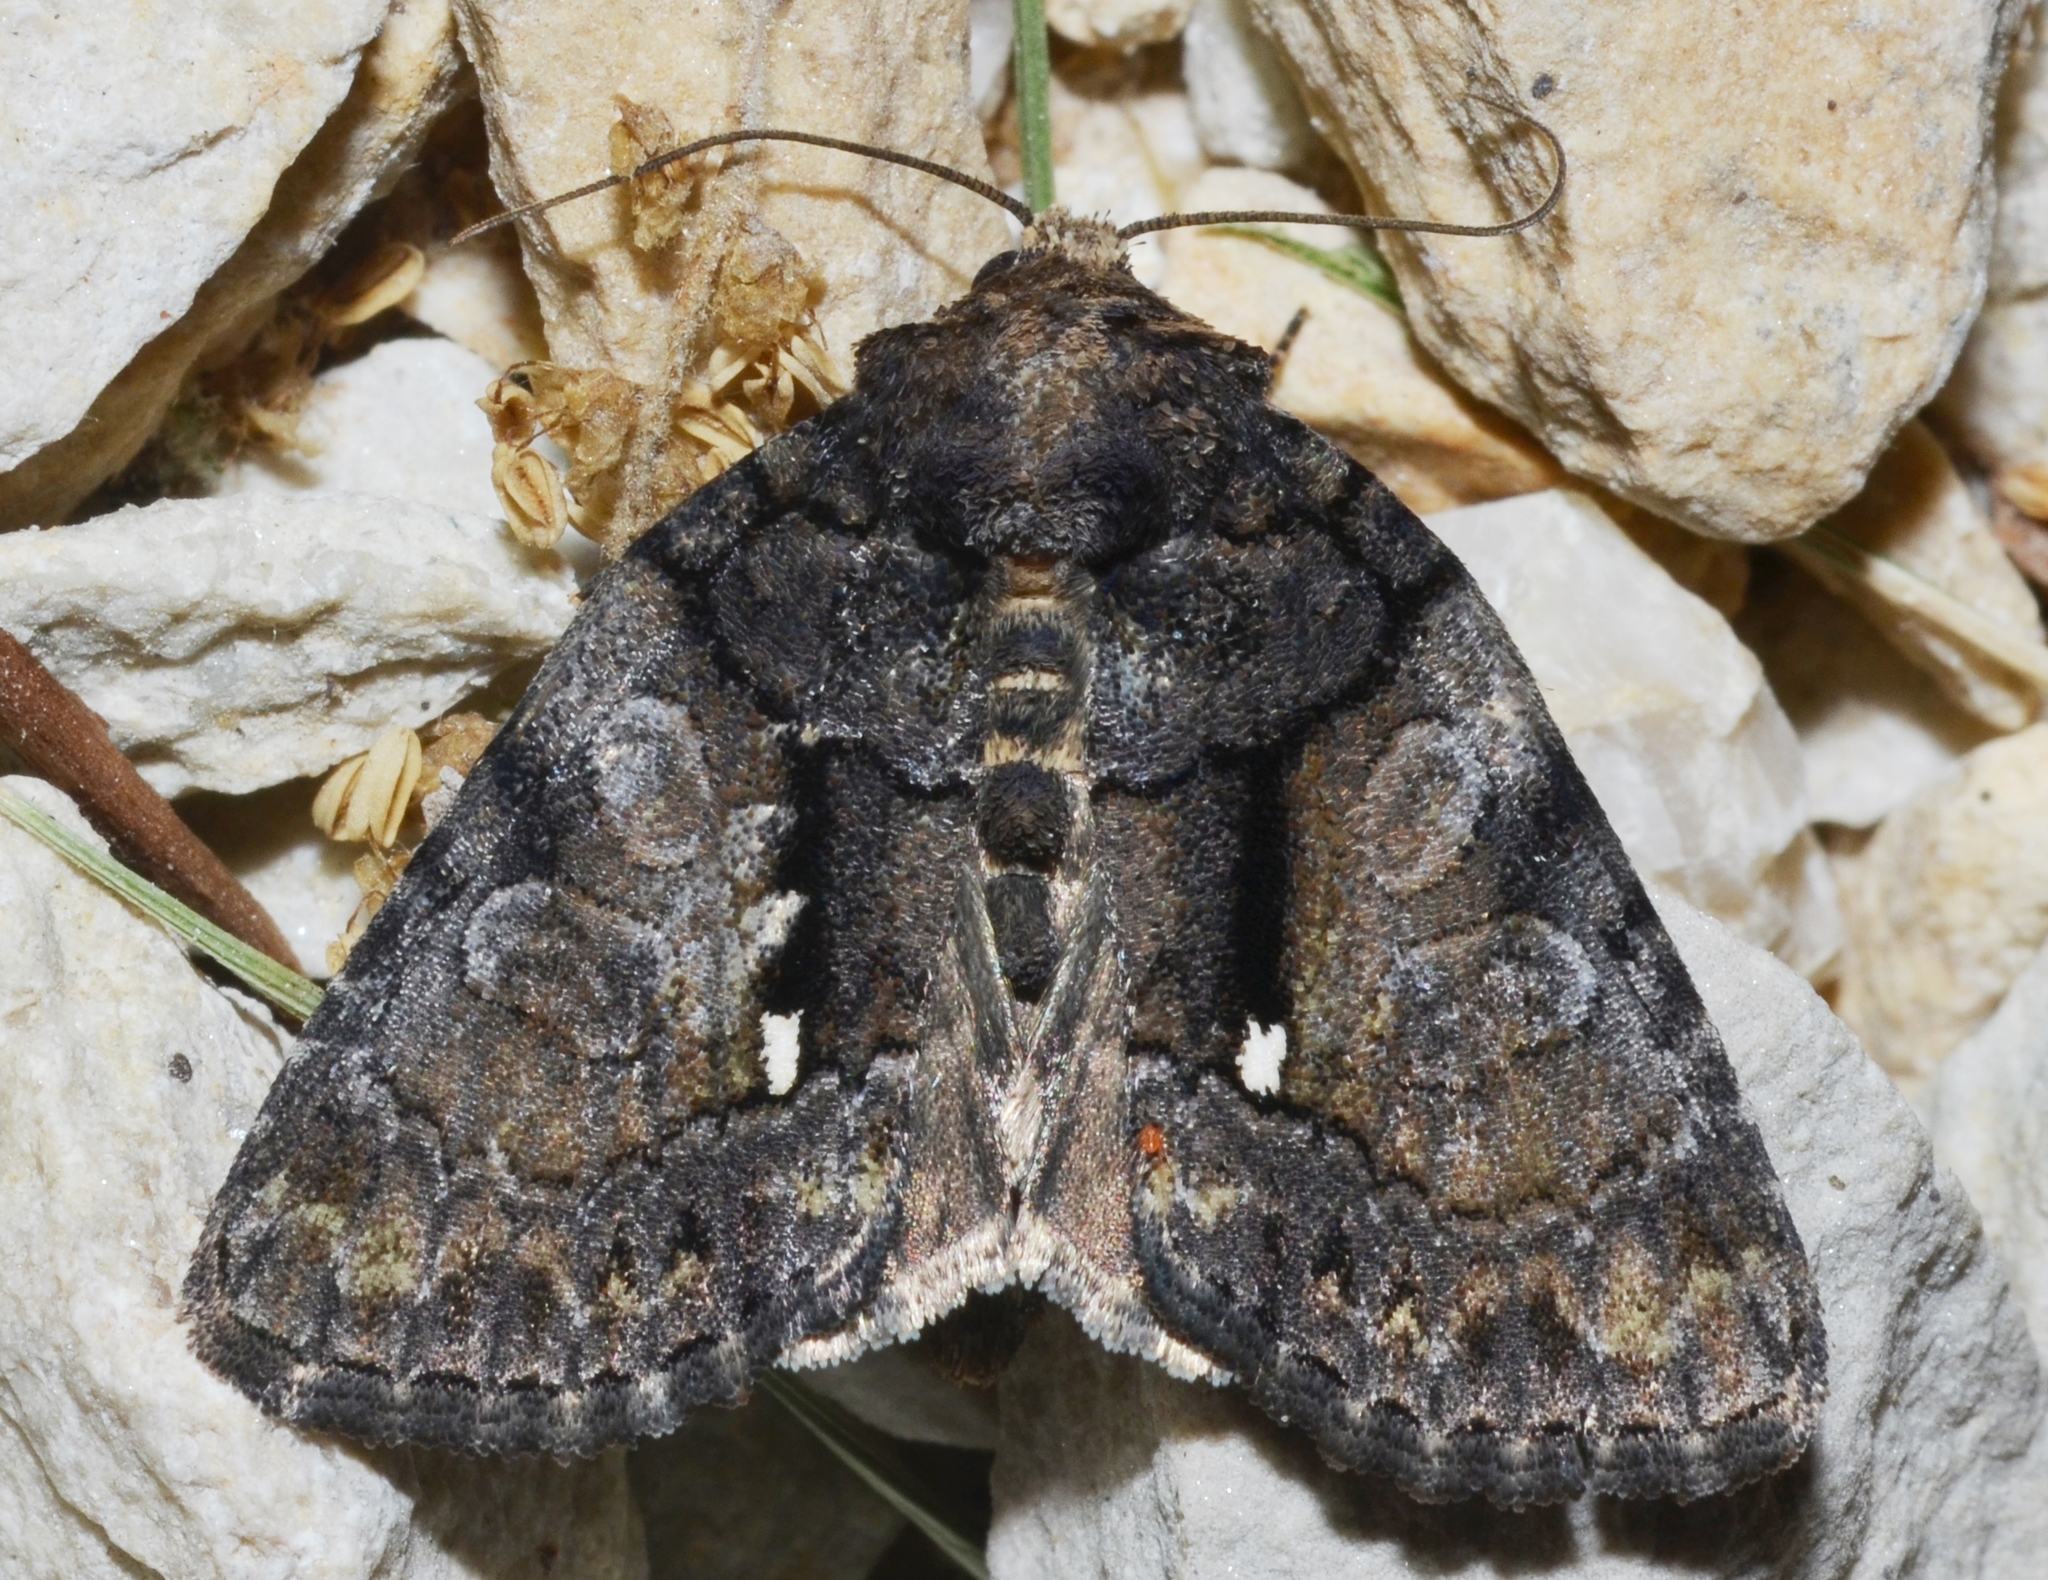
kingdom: Animalia
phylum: Arthropoda
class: Insecta
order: Lepidoptera
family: Noctuidae
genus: Chytonix
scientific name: Chytonix palliatricula
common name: Cloaked marvel
